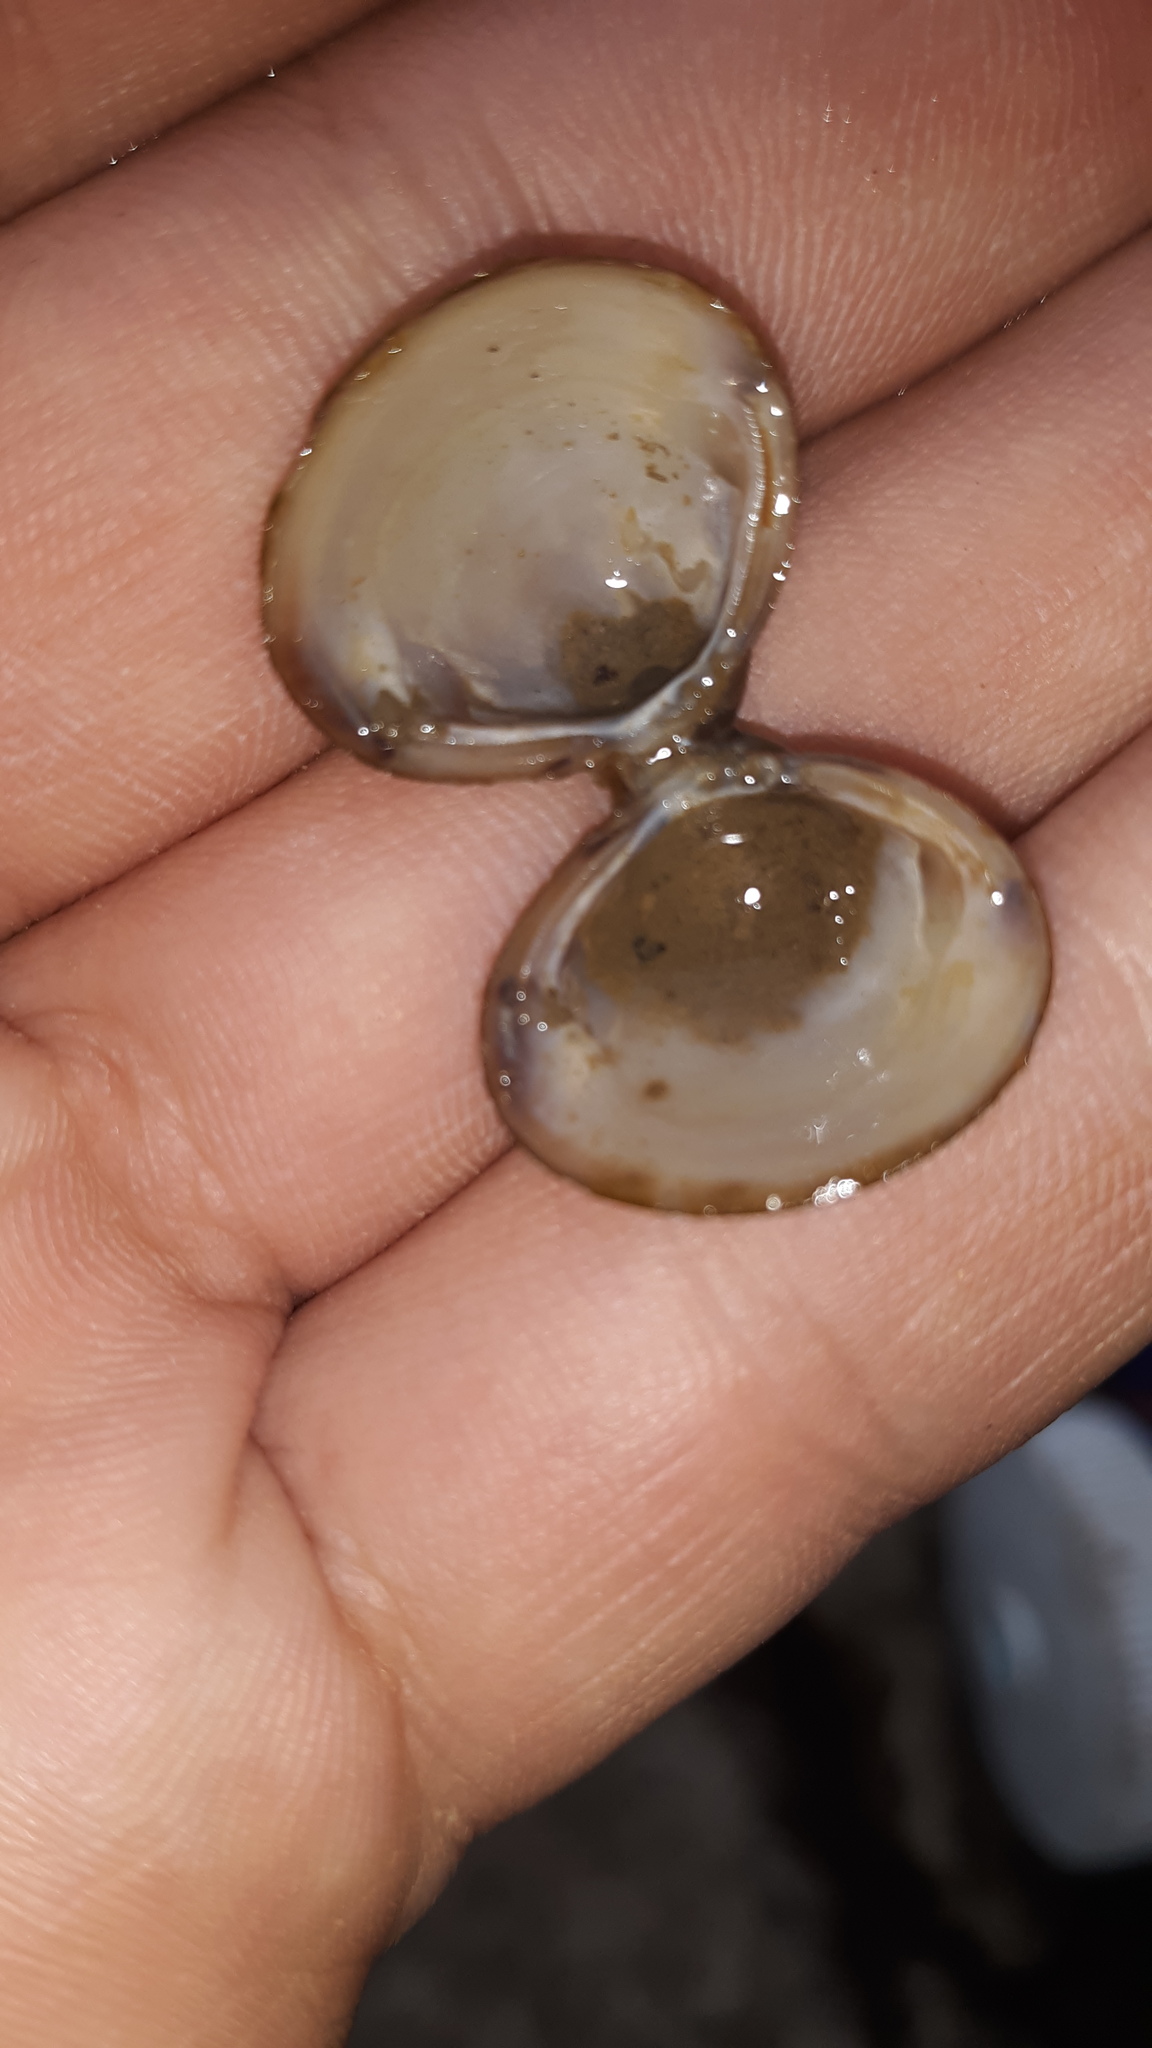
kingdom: Animalia
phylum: Mollusca
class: Bivalvia
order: Venerida
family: Cyrenidae
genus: Corbicula
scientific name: Corbicula fluminea
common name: Asian clam
